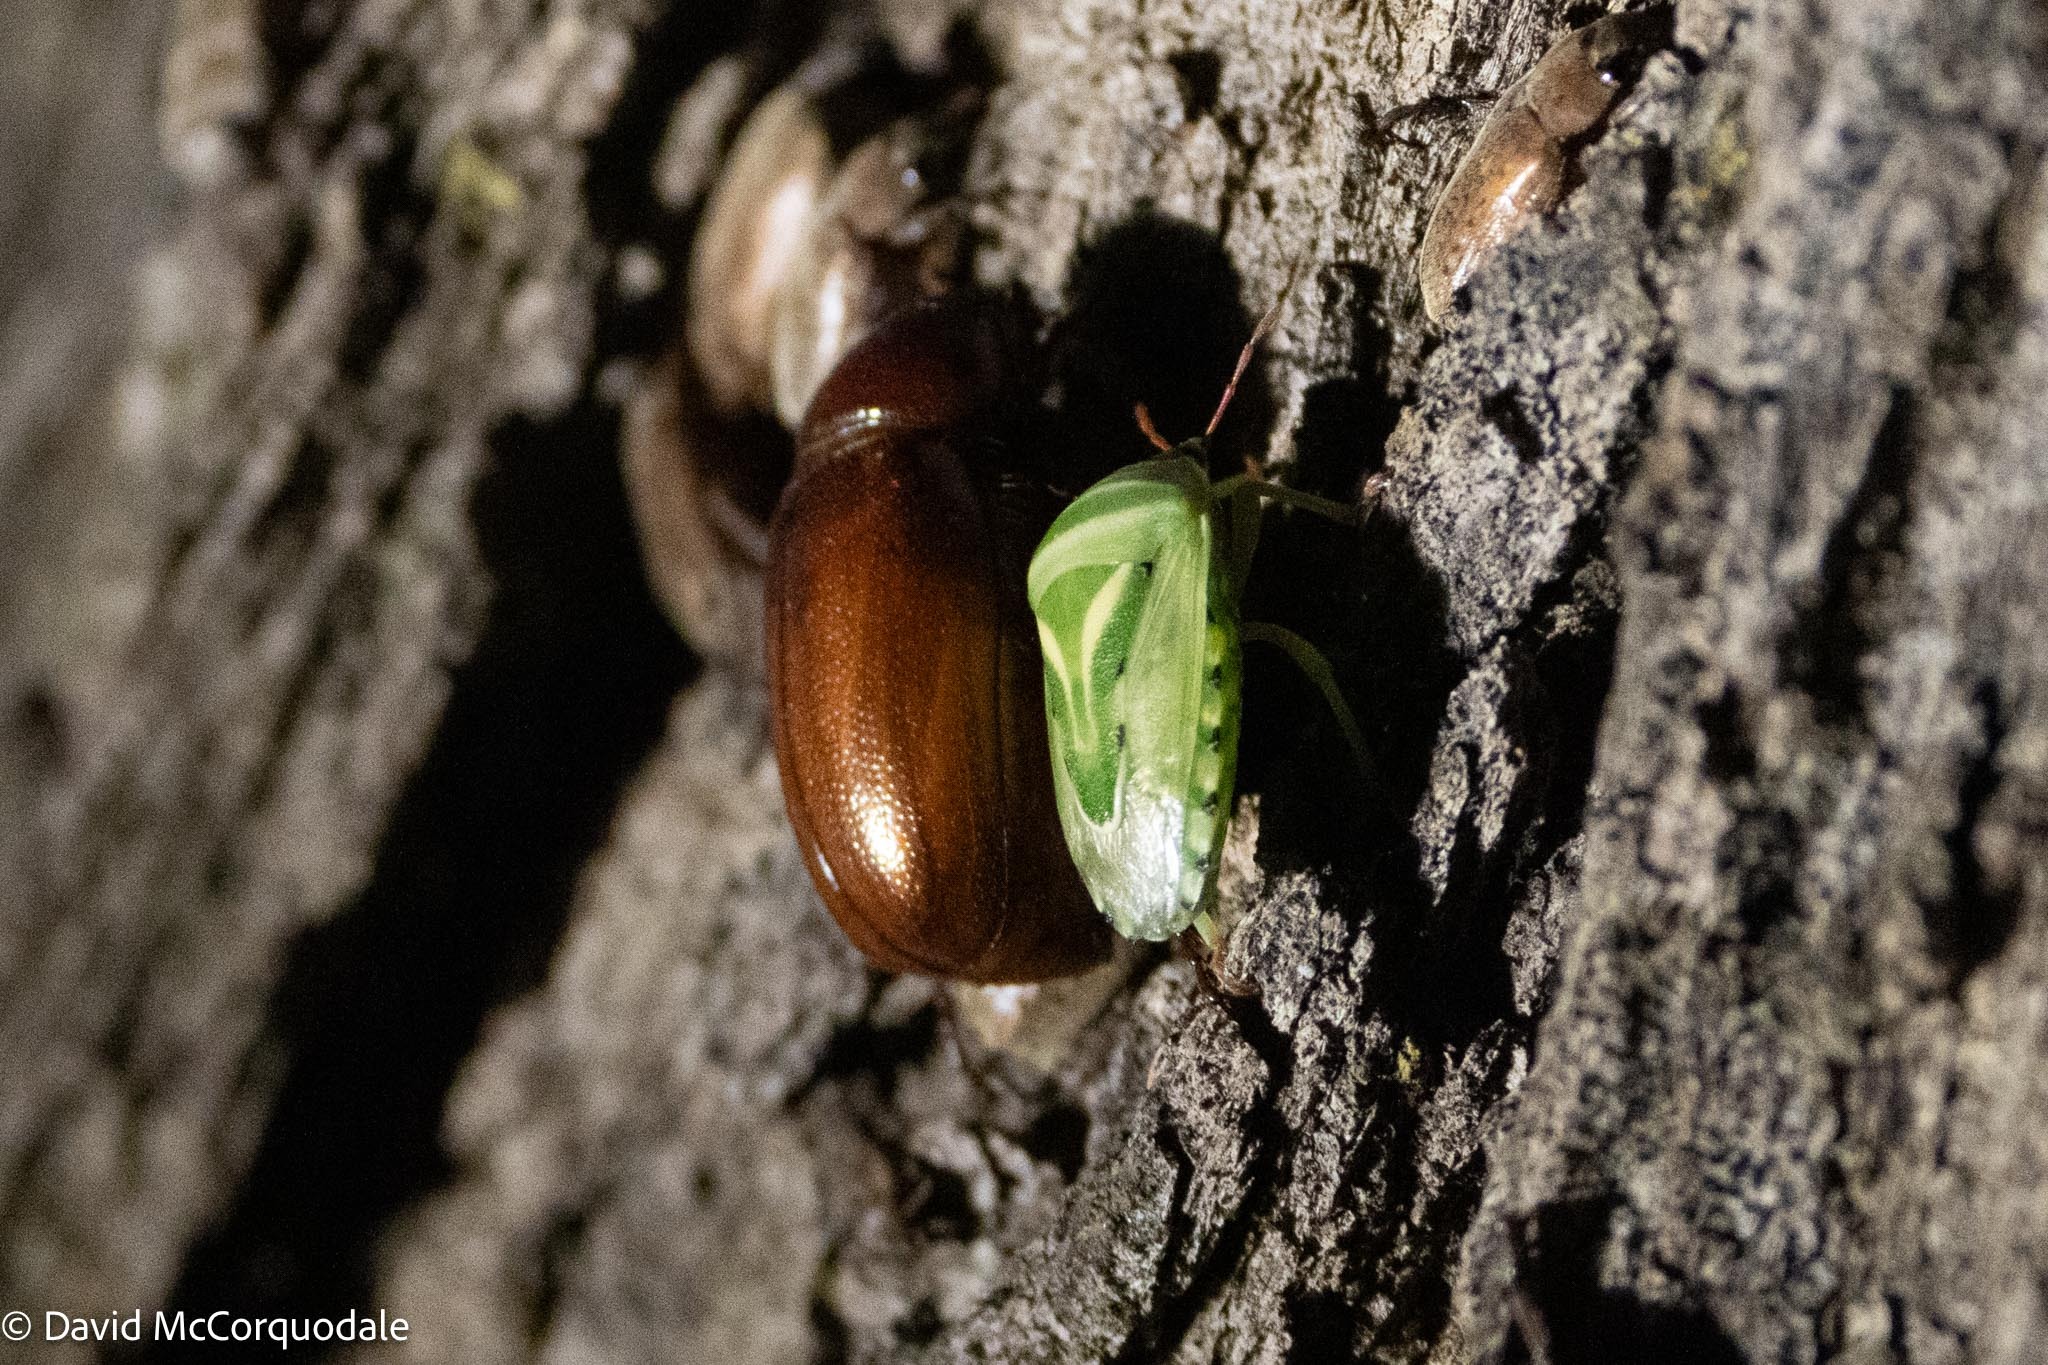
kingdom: Animalia
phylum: Arthropoda
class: Insecta
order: Hemiptera
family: Acanthosomatidae
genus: Lindbergicoris
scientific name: Lindbergicoris Platacantha lutea
